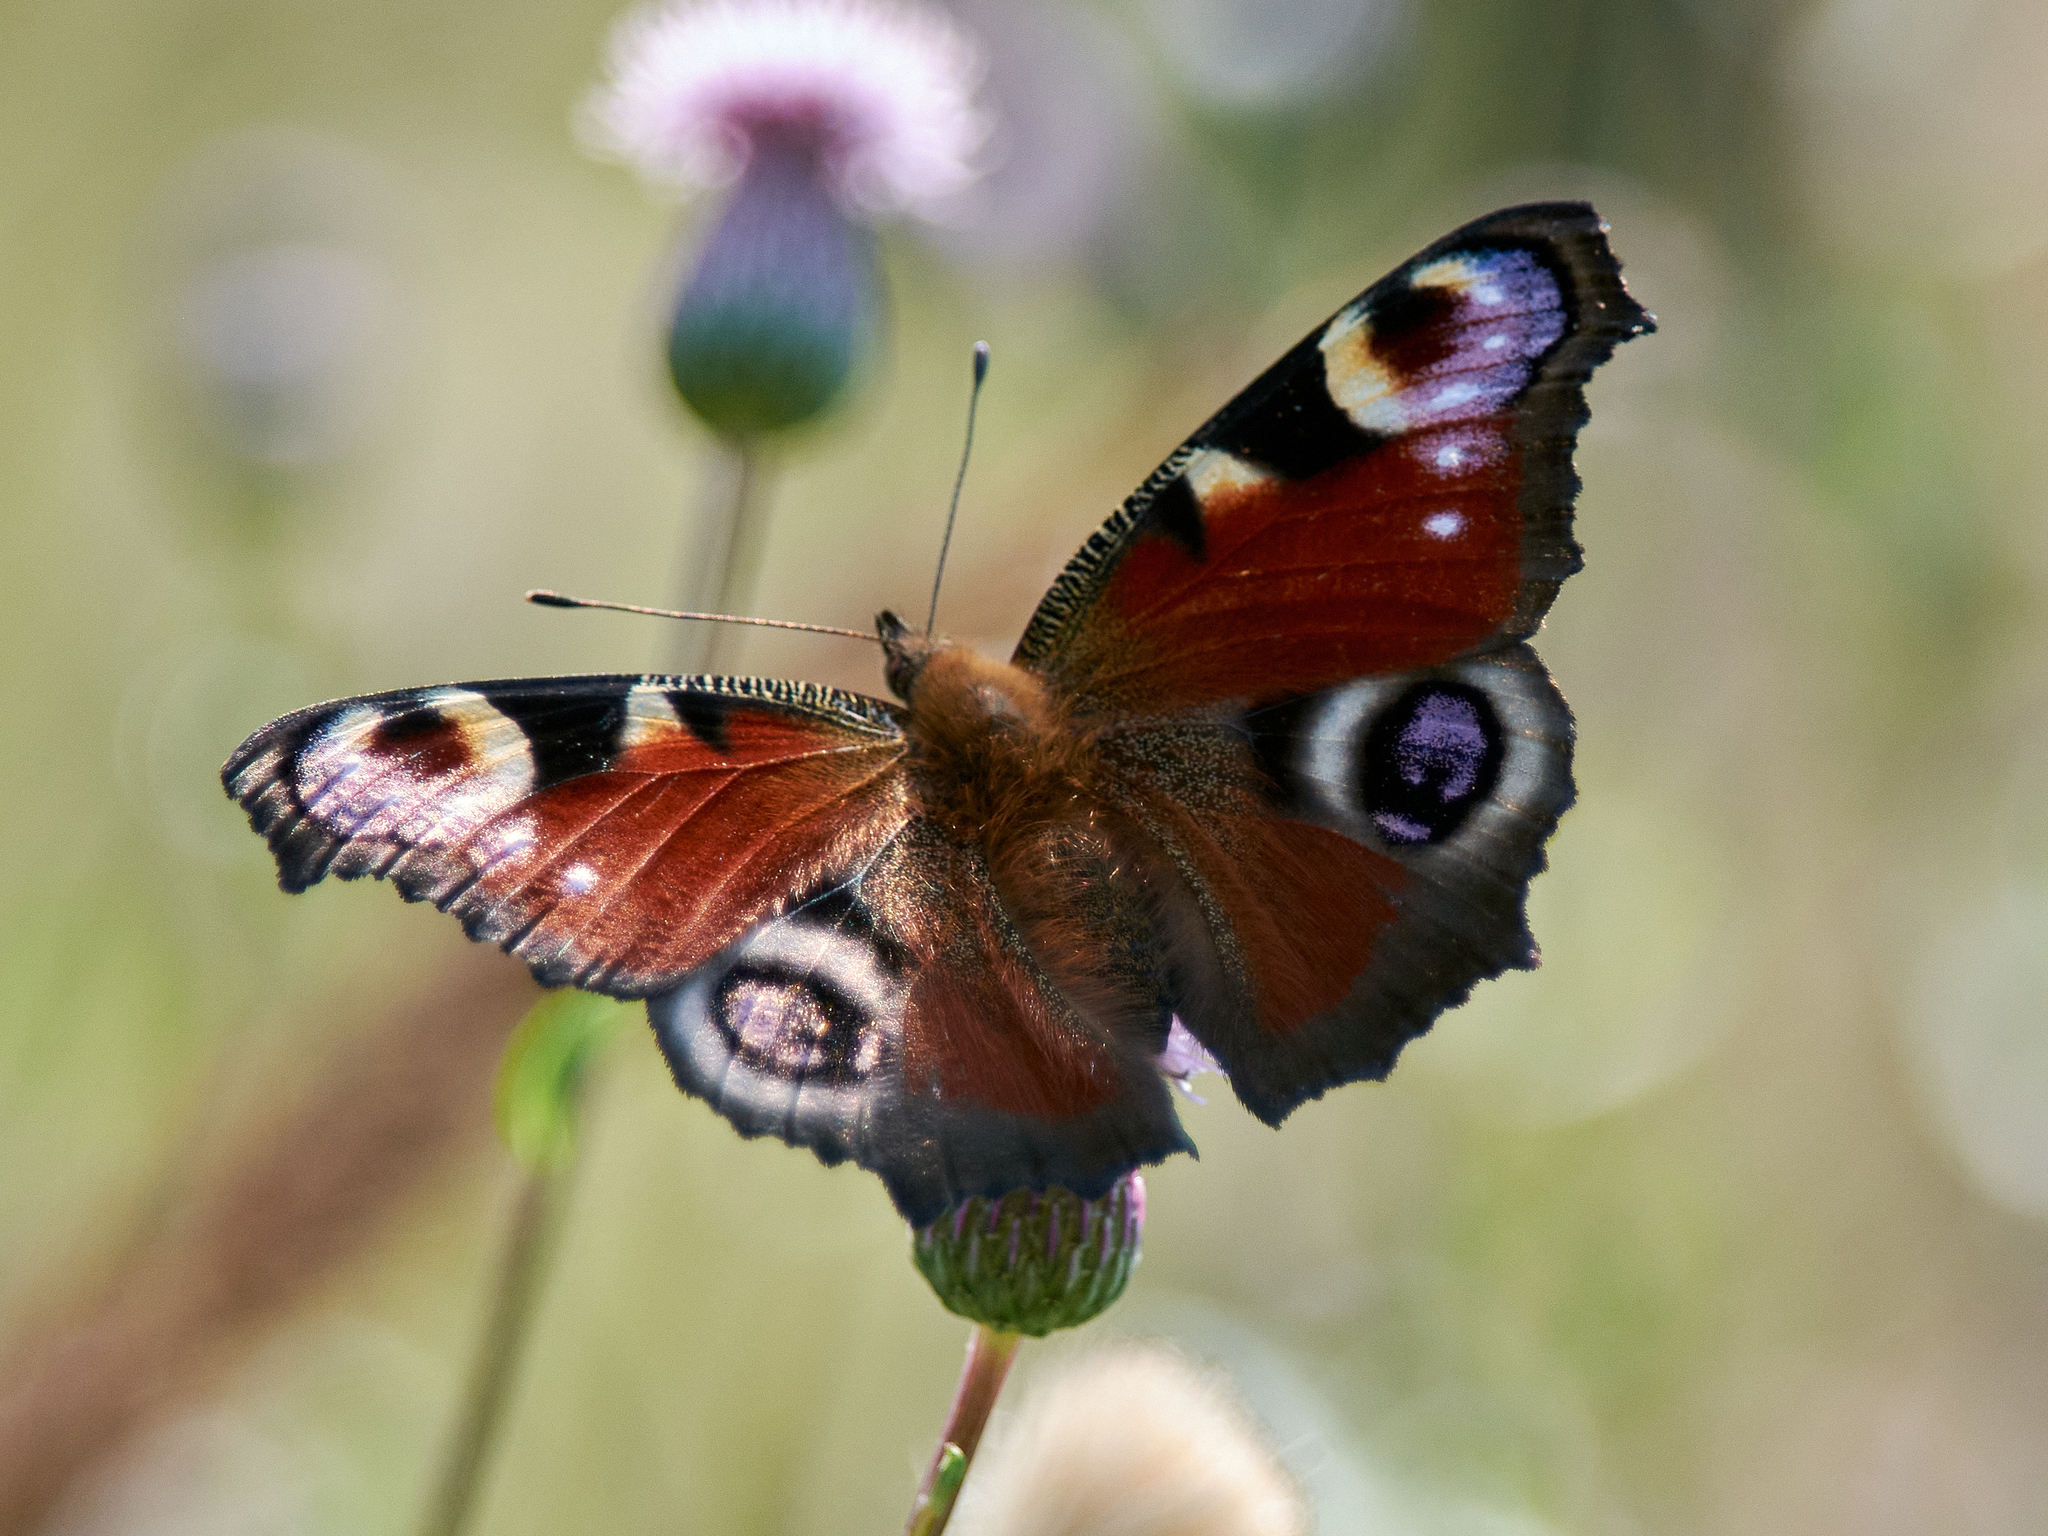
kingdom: Animalia
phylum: Arthropoda
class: Insecta
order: Lepidoptera
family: Nymphalidae
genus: Aglais
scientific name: Aglais io
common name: Peacock
